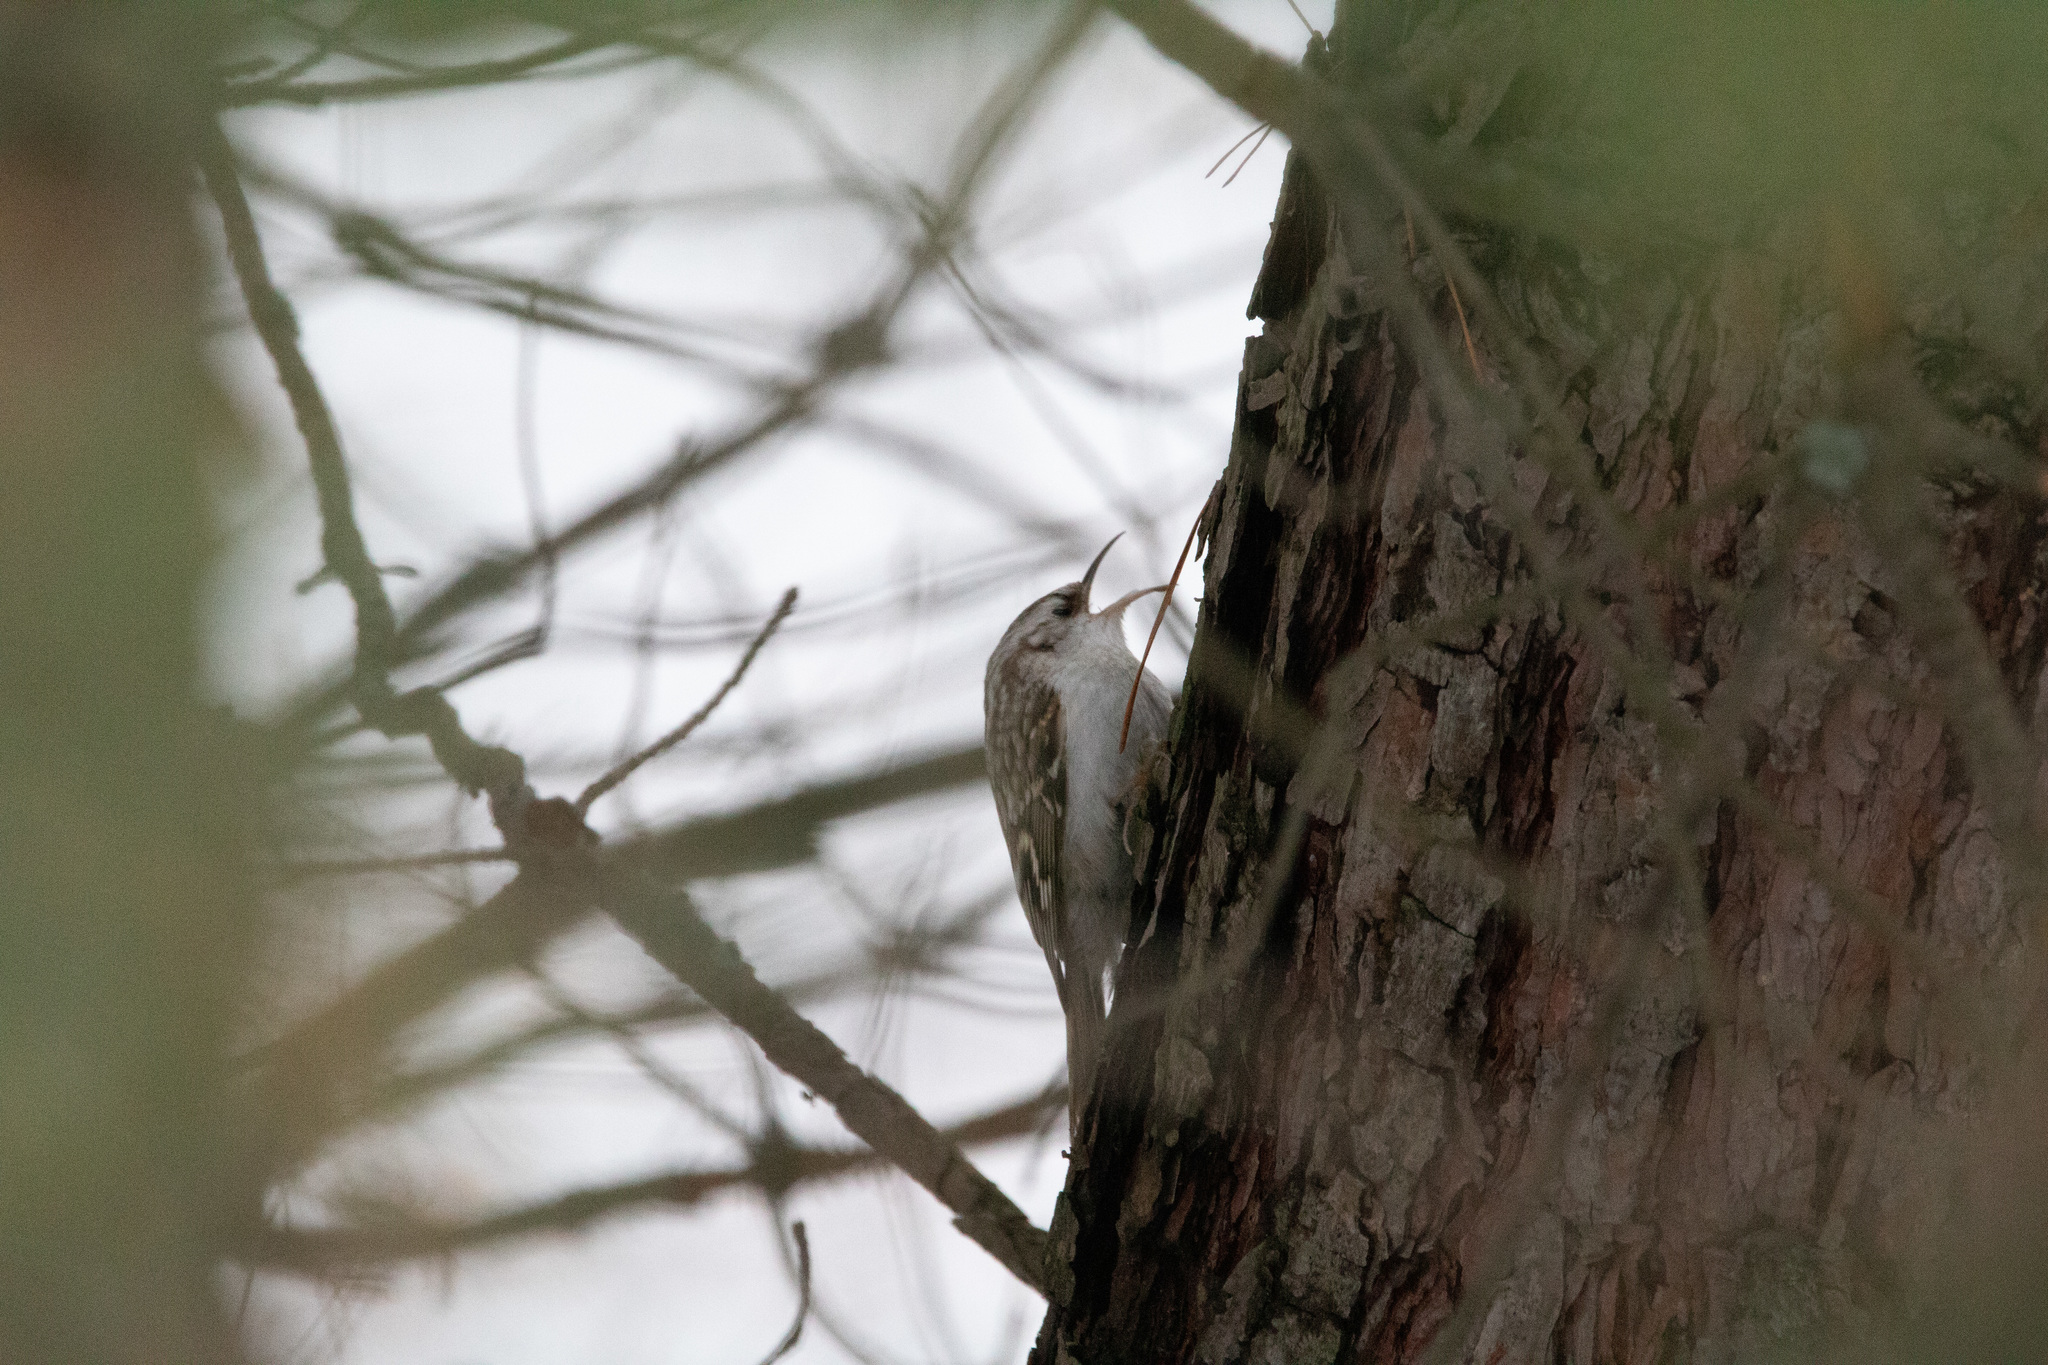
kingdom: Animalia
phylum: Chordata
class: Aves
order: Passeriformes
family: Certhiidae
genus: Certhia
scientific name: Certhia familiaris
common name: Eurasian treecreeper
